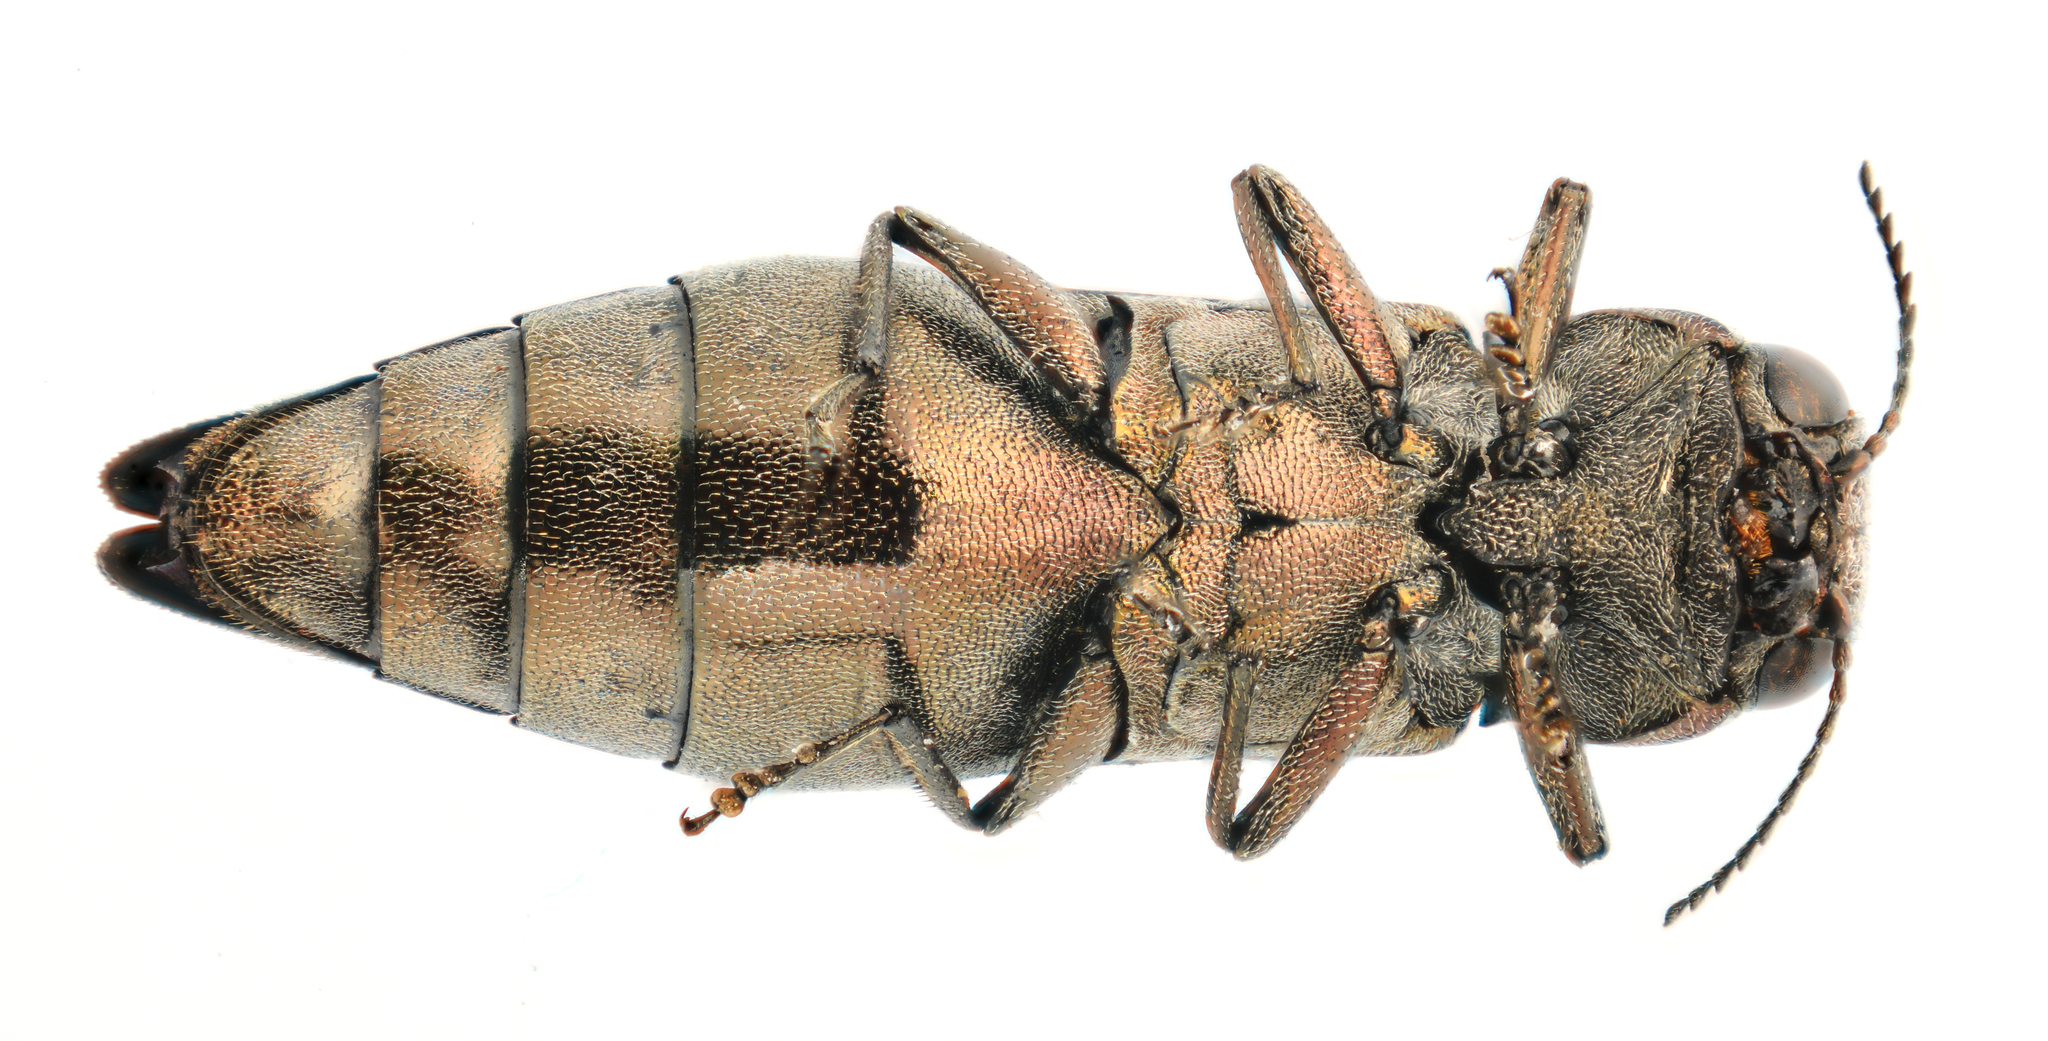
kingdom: Animalia
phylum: Arthropoda
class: Insecta
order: Coleoptera
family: Buprestidae
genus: Agrilus
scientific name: Agrilus sinuatus
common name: Metallic wood-boring beetle
